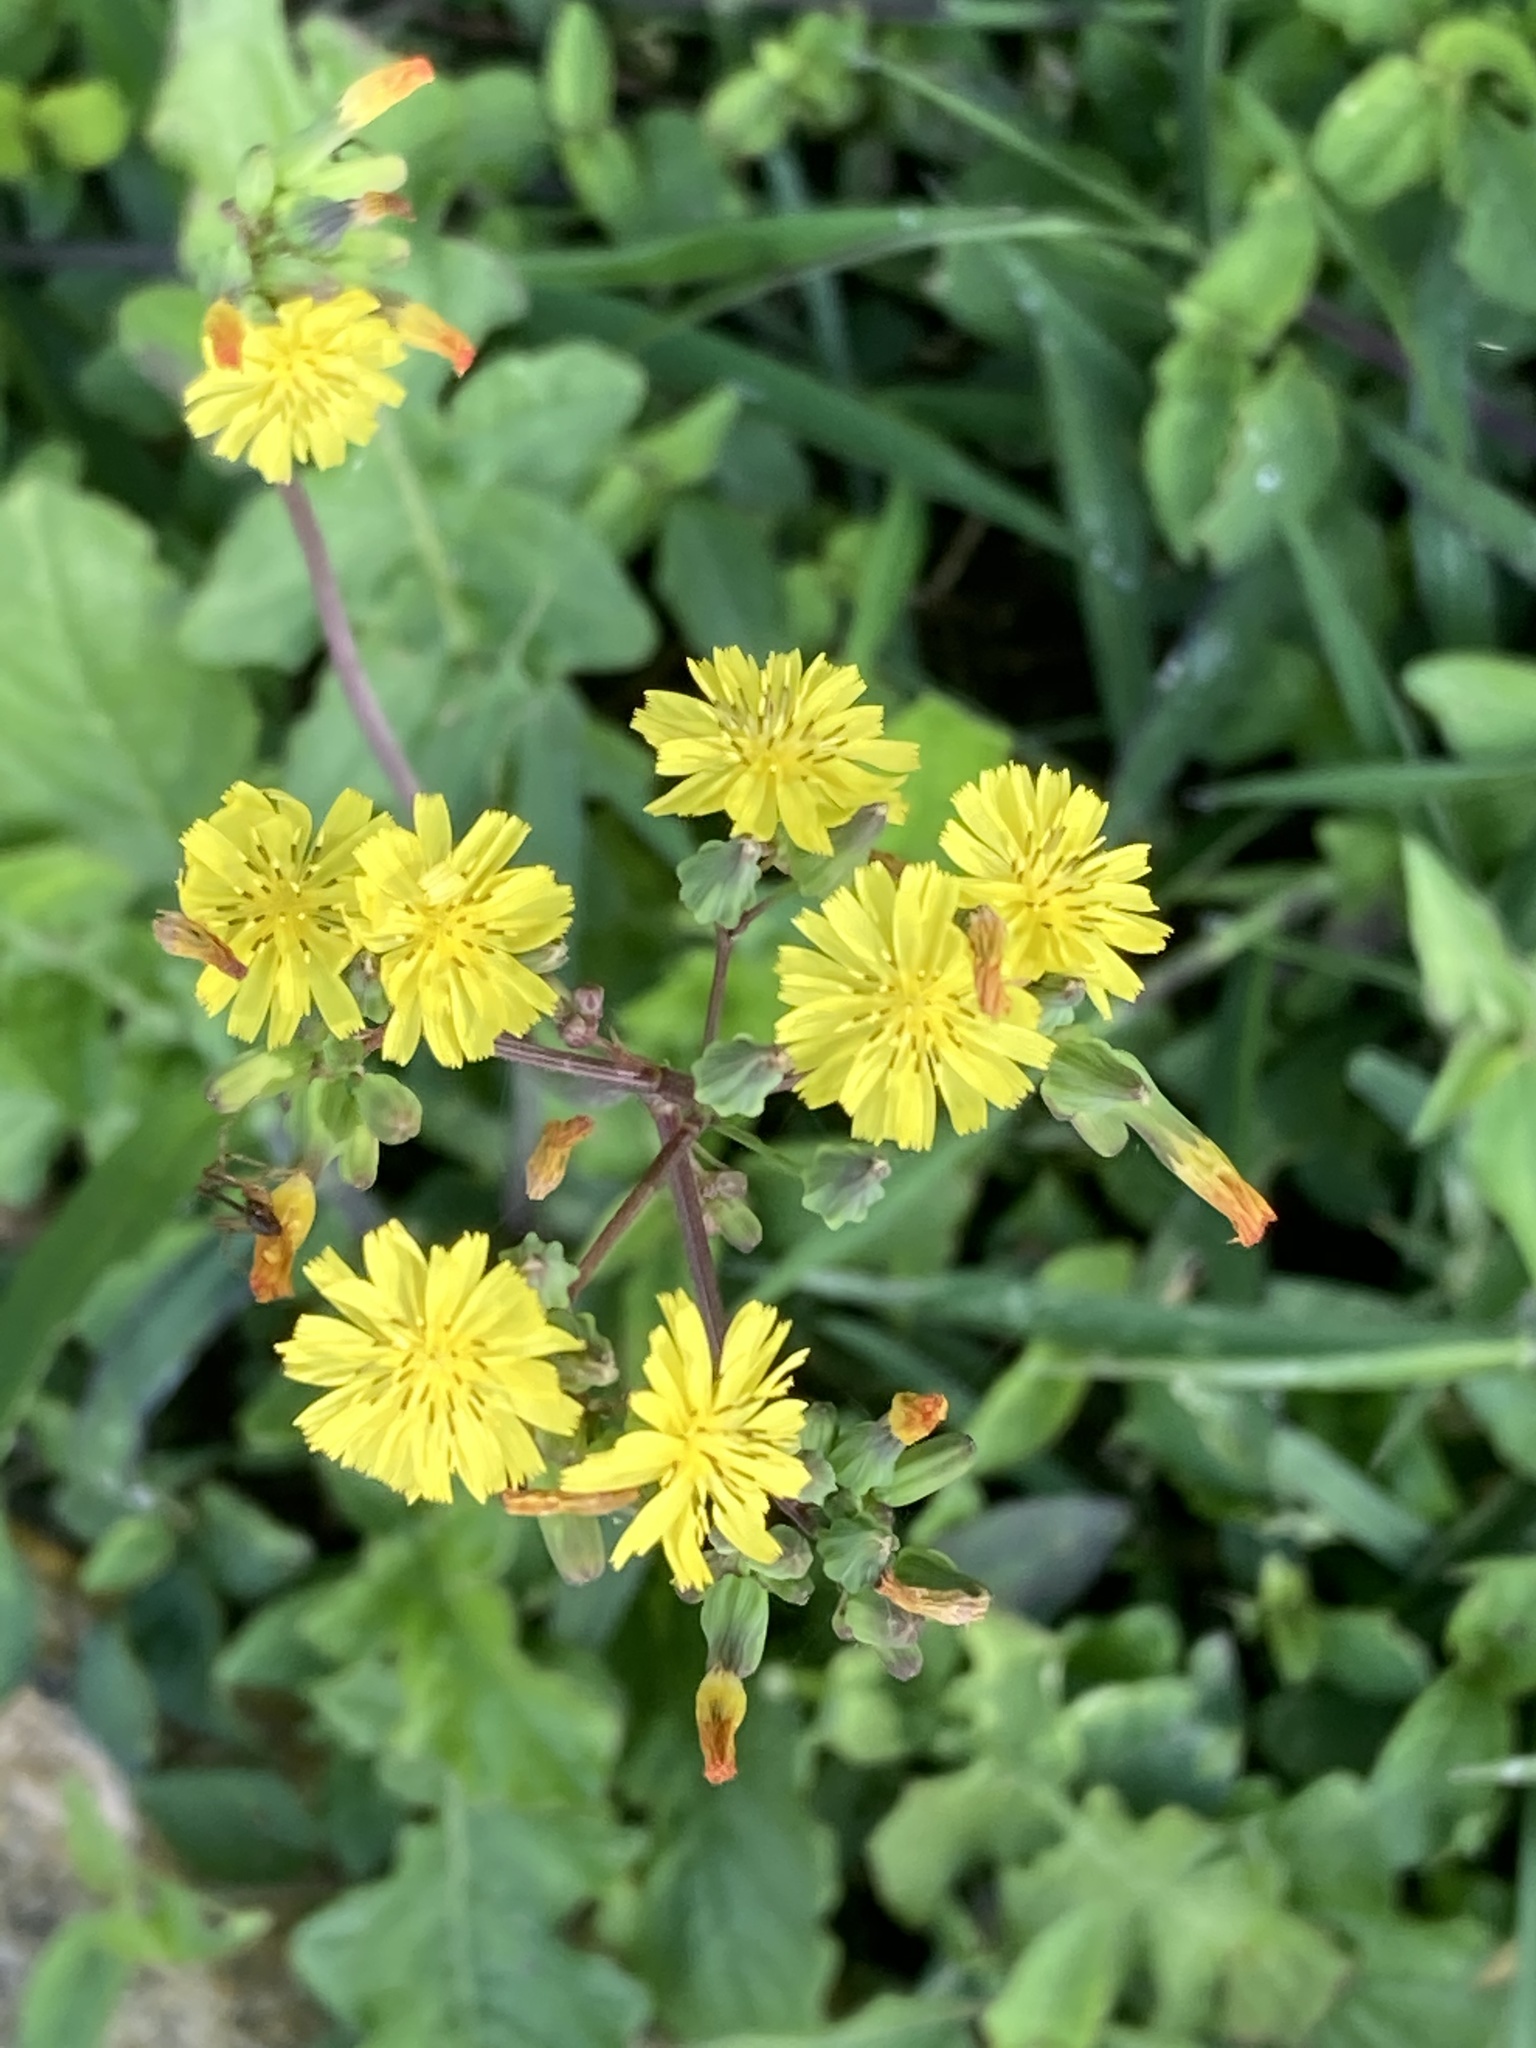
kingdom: Plantae
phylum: Tracheophyta
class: Magnoliopsida
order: Asterales
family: Asteraceae
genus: Youngia
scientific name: Youngia japonica
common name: Oriental false hawksbeard
